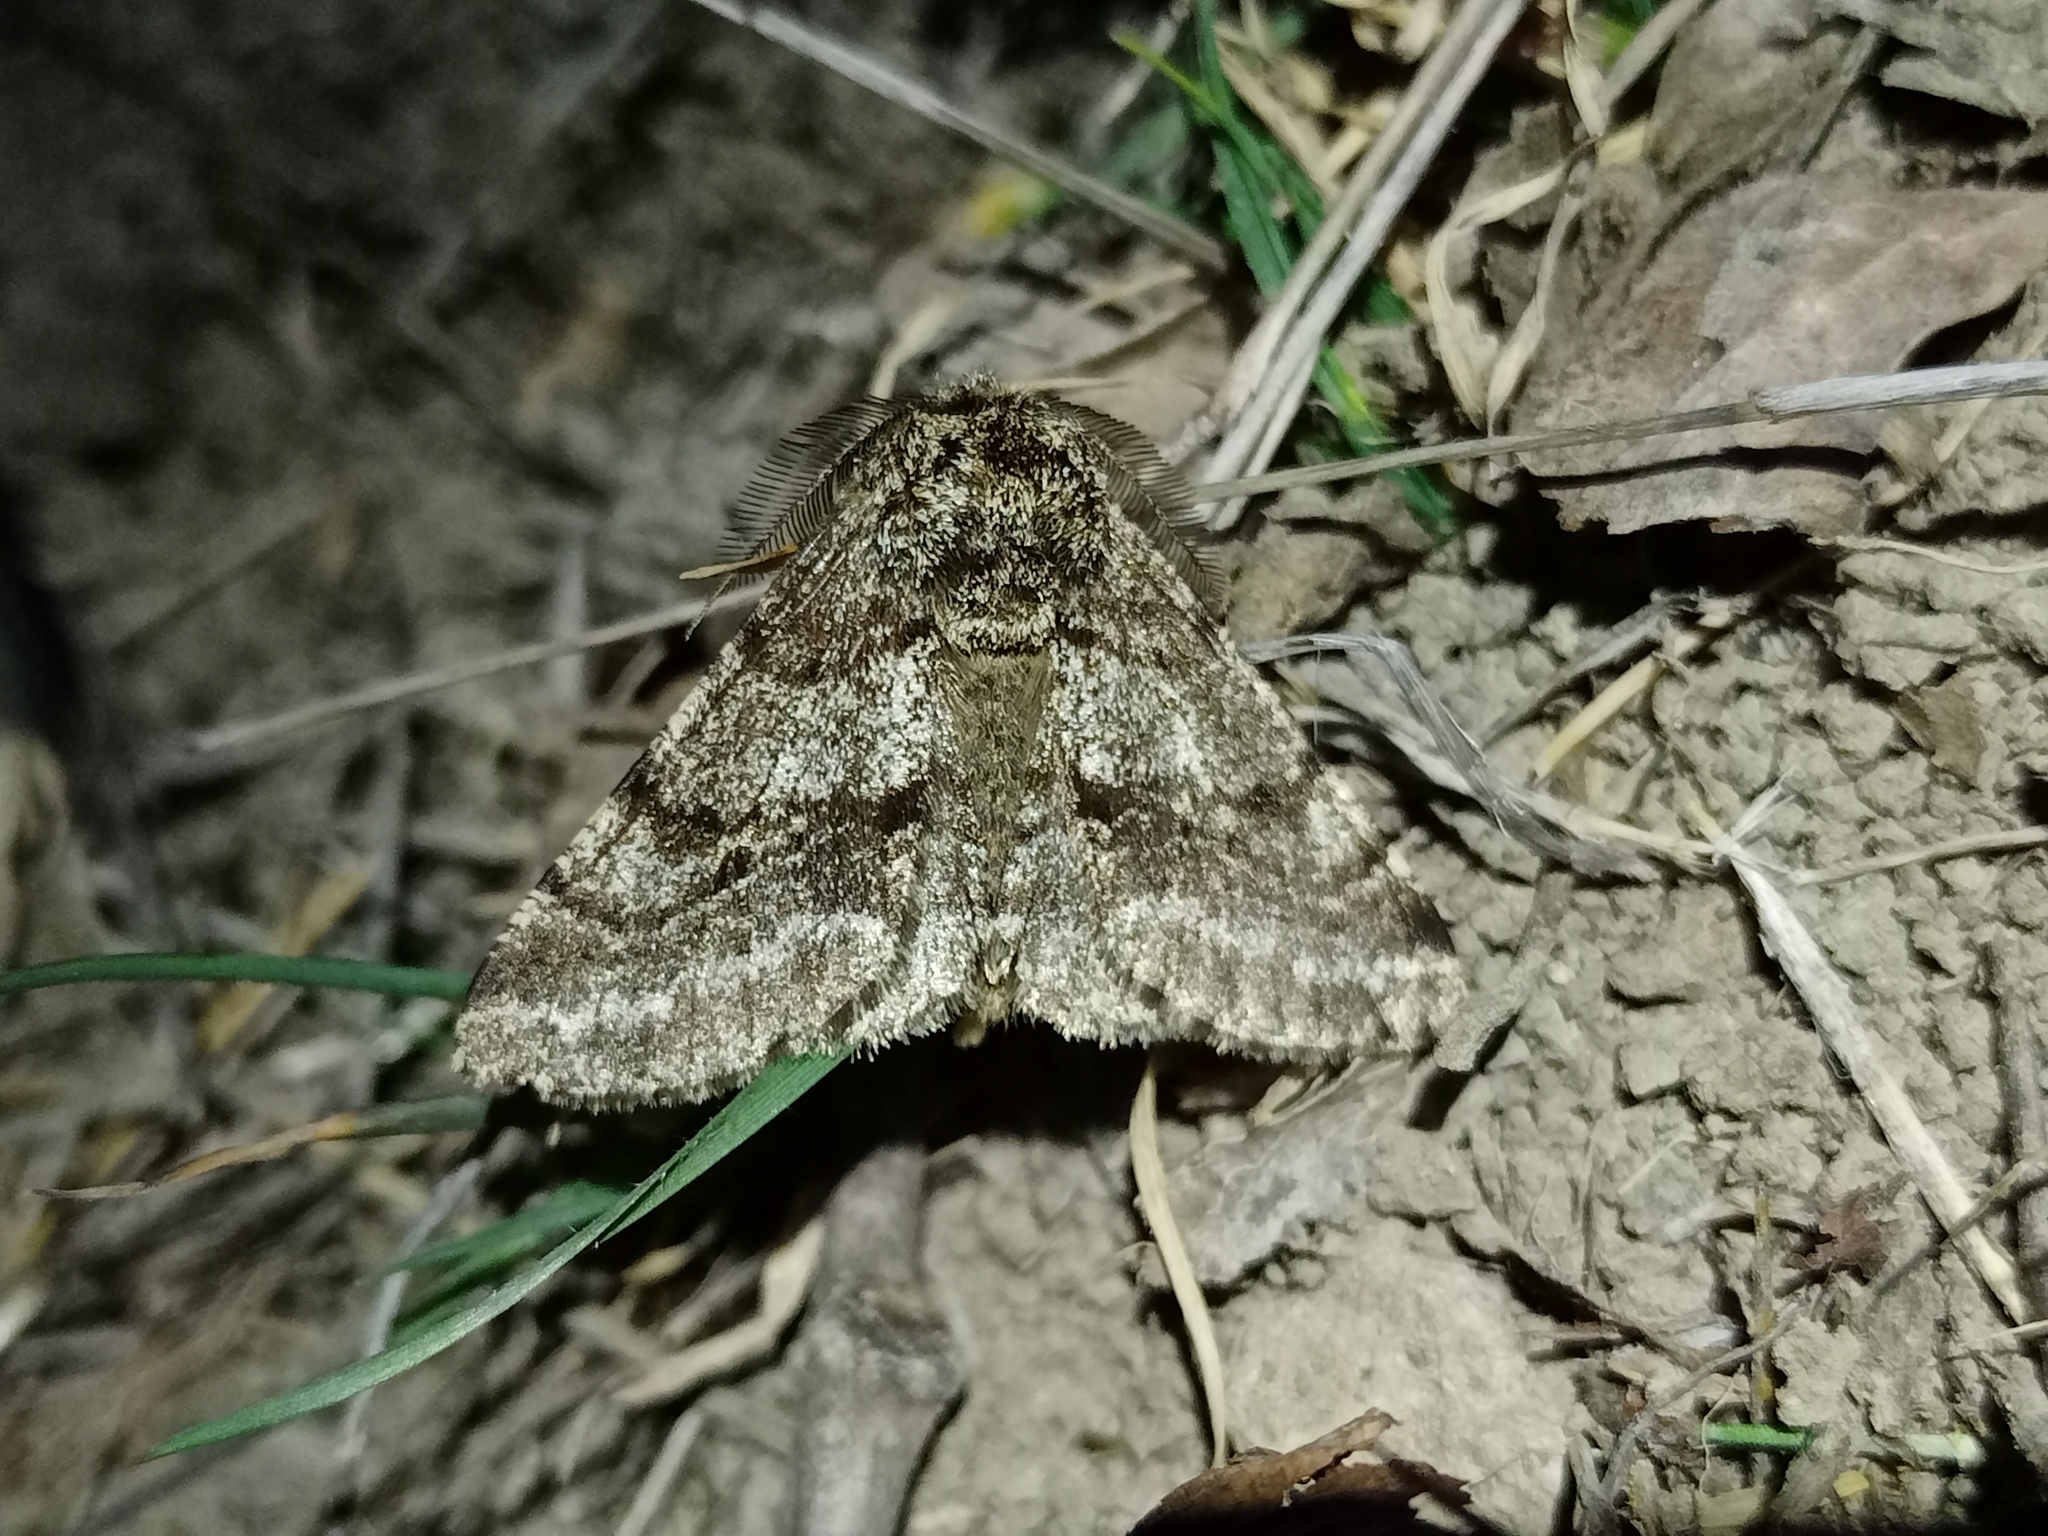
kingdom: Animalia
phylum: Arthropoda
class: Insecta
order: Lepidoptera
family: Geometridae
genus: Lycia
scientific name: Lycia hirtaria
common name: Brindled beauty
